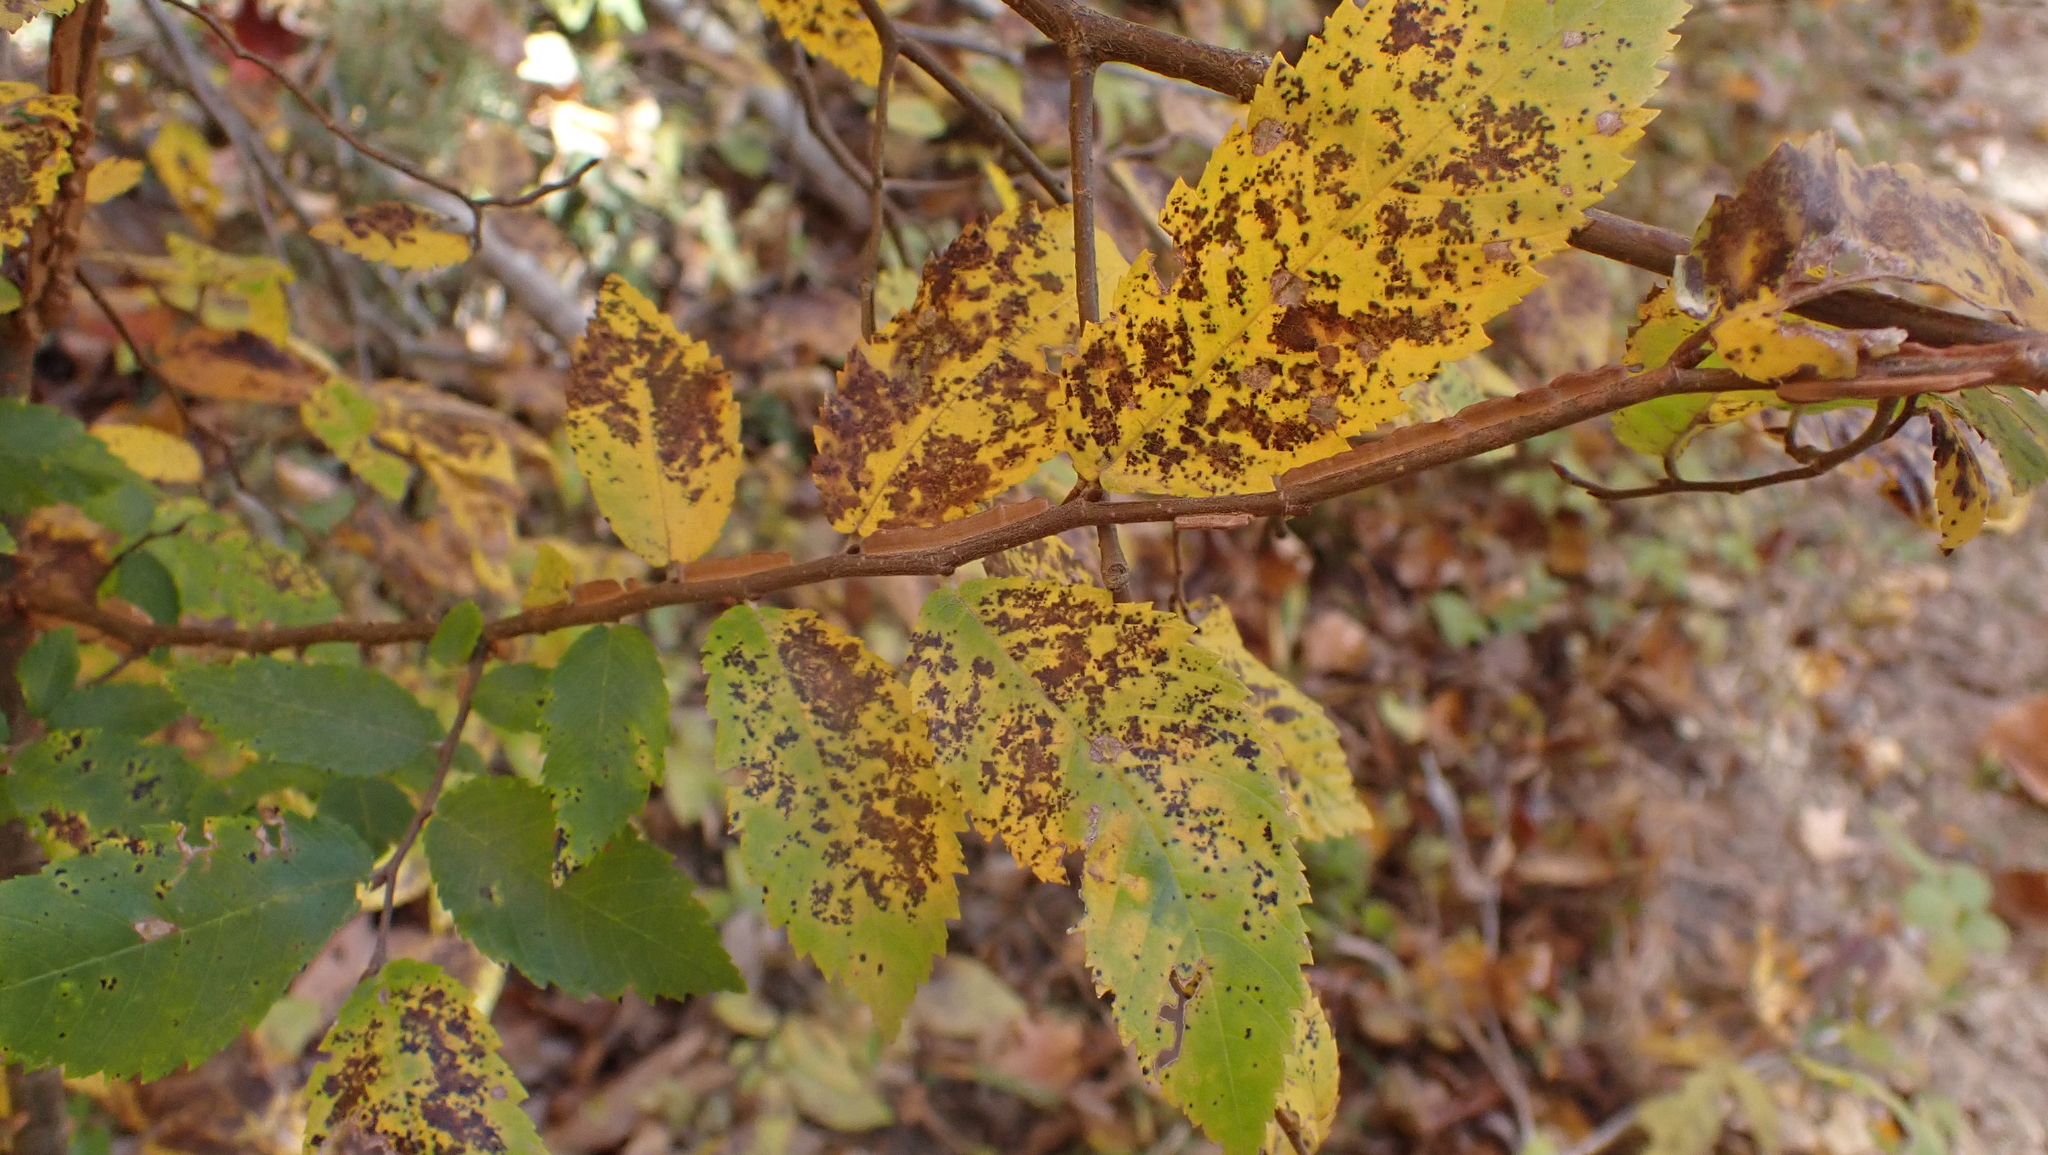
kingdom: Plantae
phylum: Tracheophyta
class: Magnoliopsida
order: Rosales
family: Ulmaceae
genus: Ulmus
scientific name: Ulmus alata
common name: Winged elm
